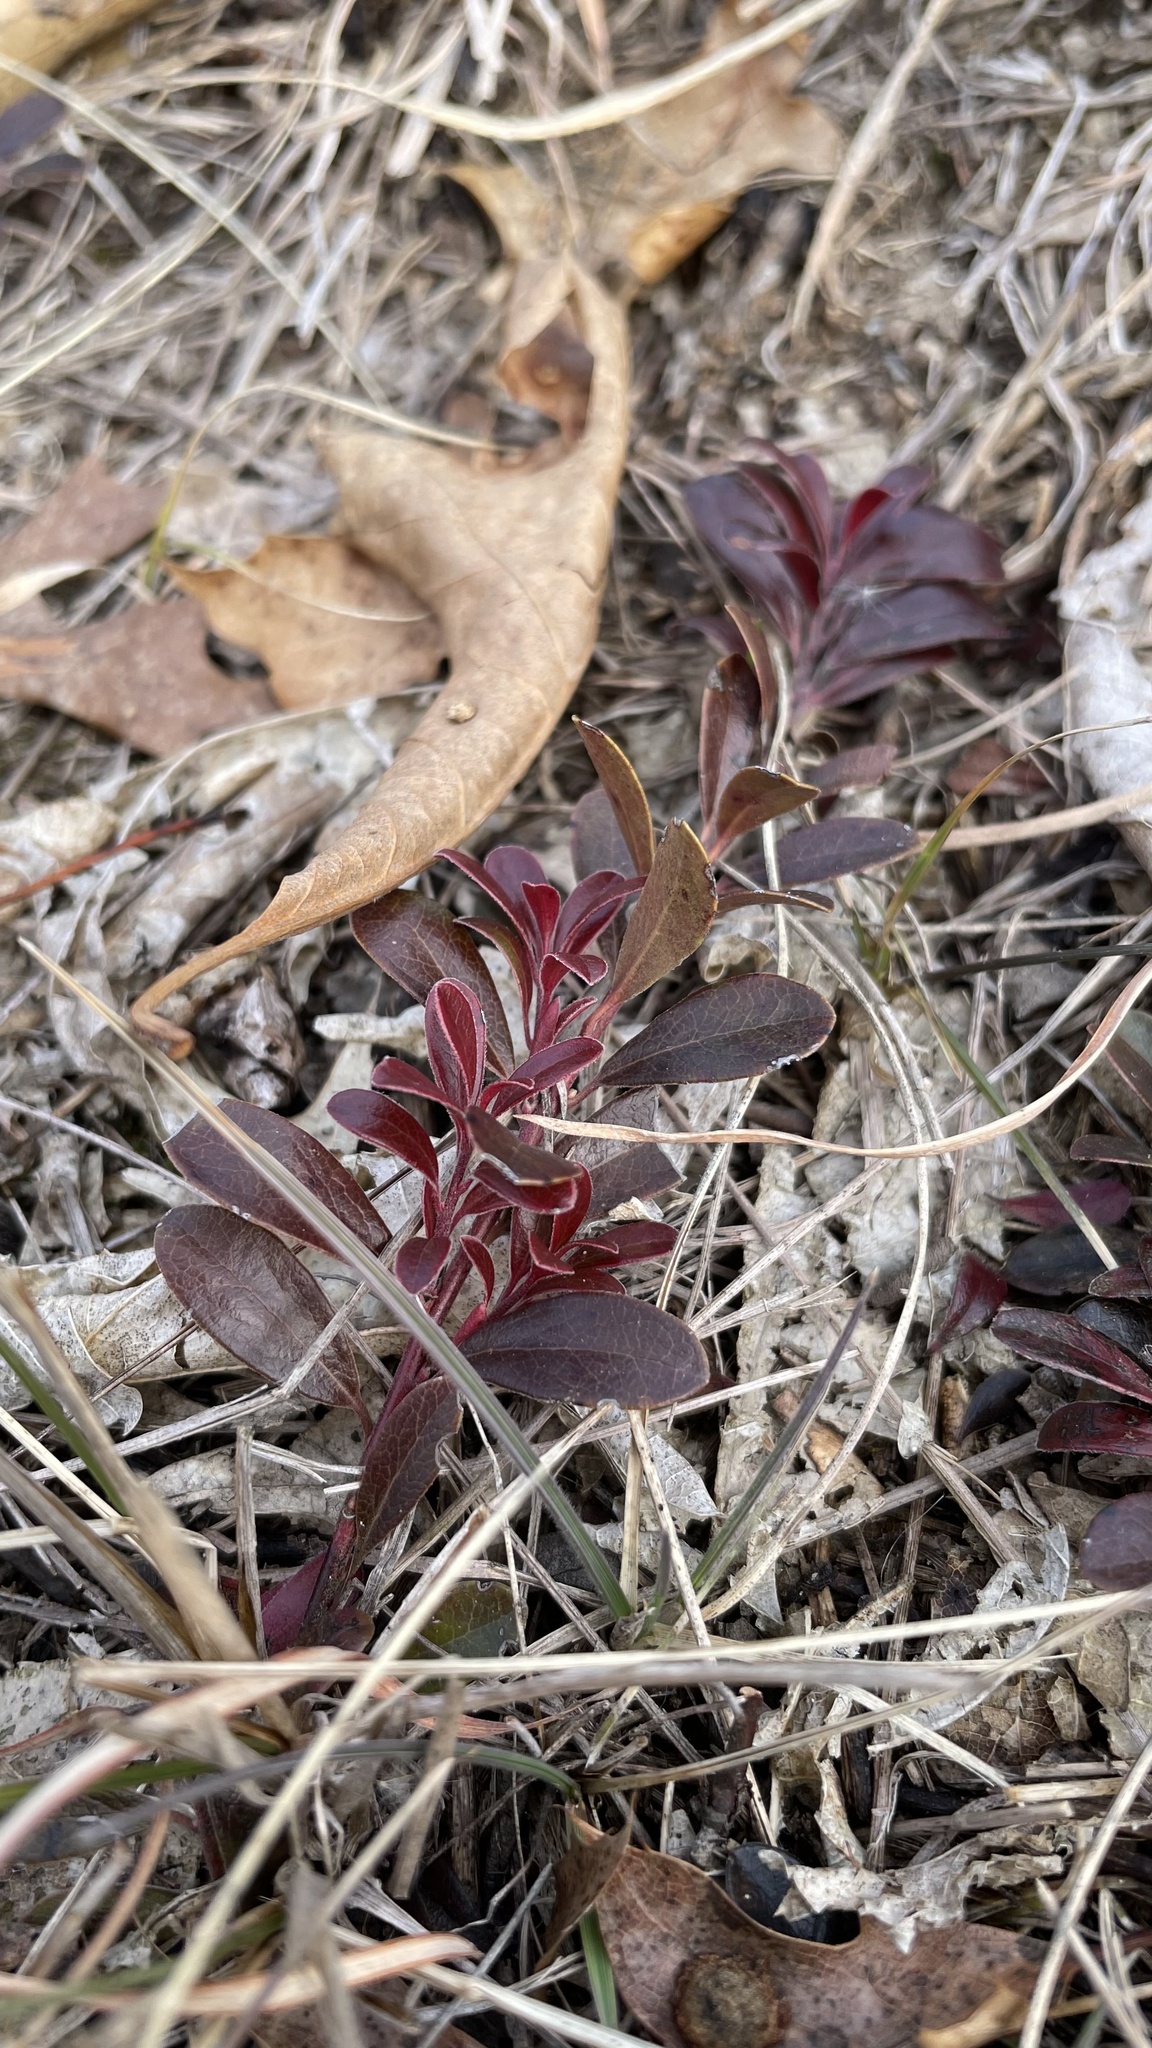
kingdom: Plantae
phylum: Tracheophyta
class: Magnoliopsida
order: Ericales
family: Ericaceae
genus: Arctostaphylos
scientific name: Arctostaphylos uva-ursi
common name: Bearberry
